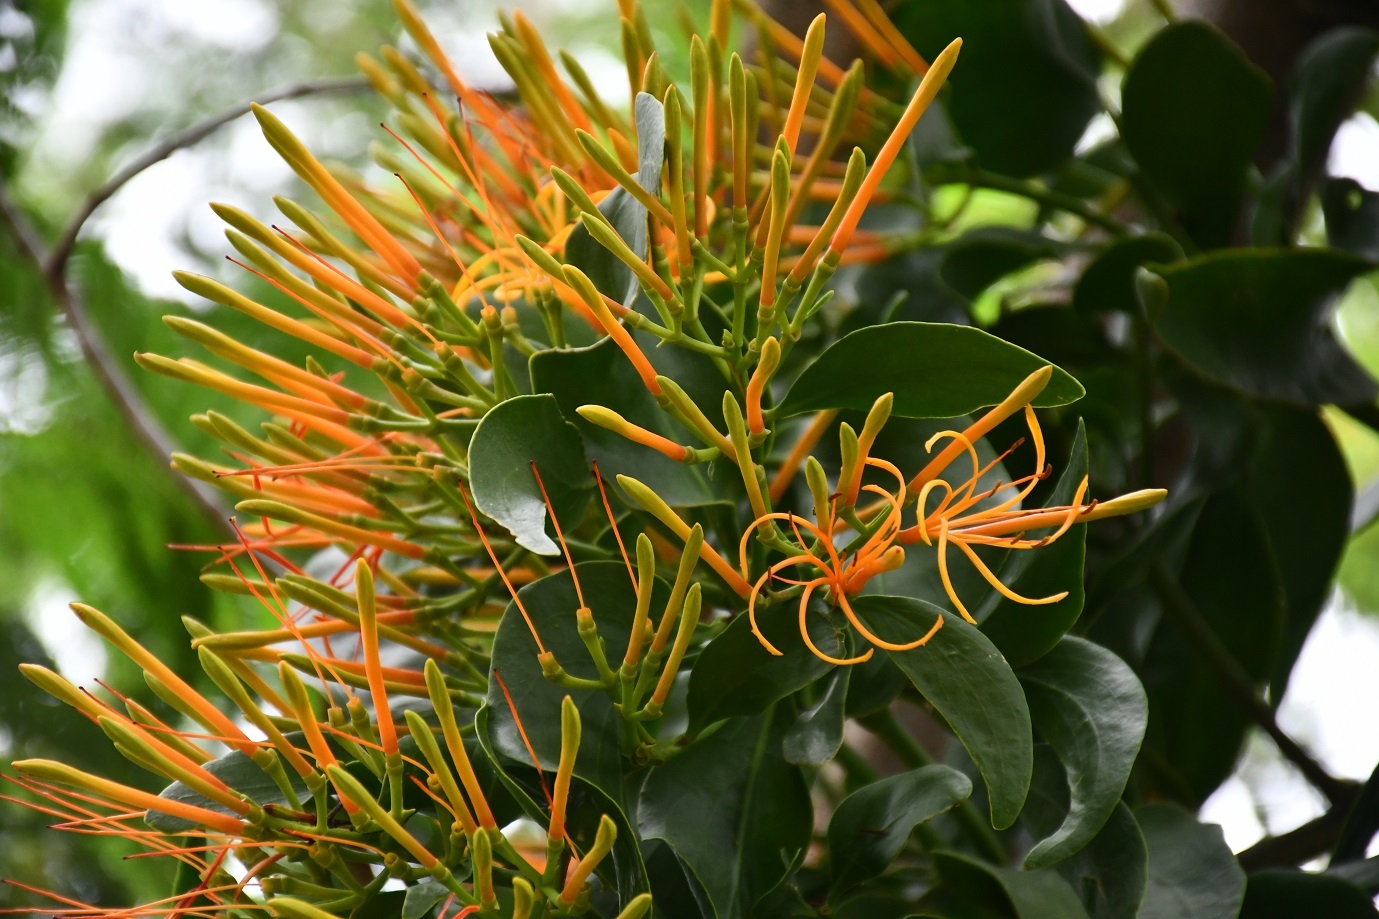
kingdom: Plantae
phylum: Tracheophyta
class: Magnoliopsida
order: Santalales
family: Loranthaceae
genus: Psittacanthus
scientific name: Psittacanthus calyculatus
